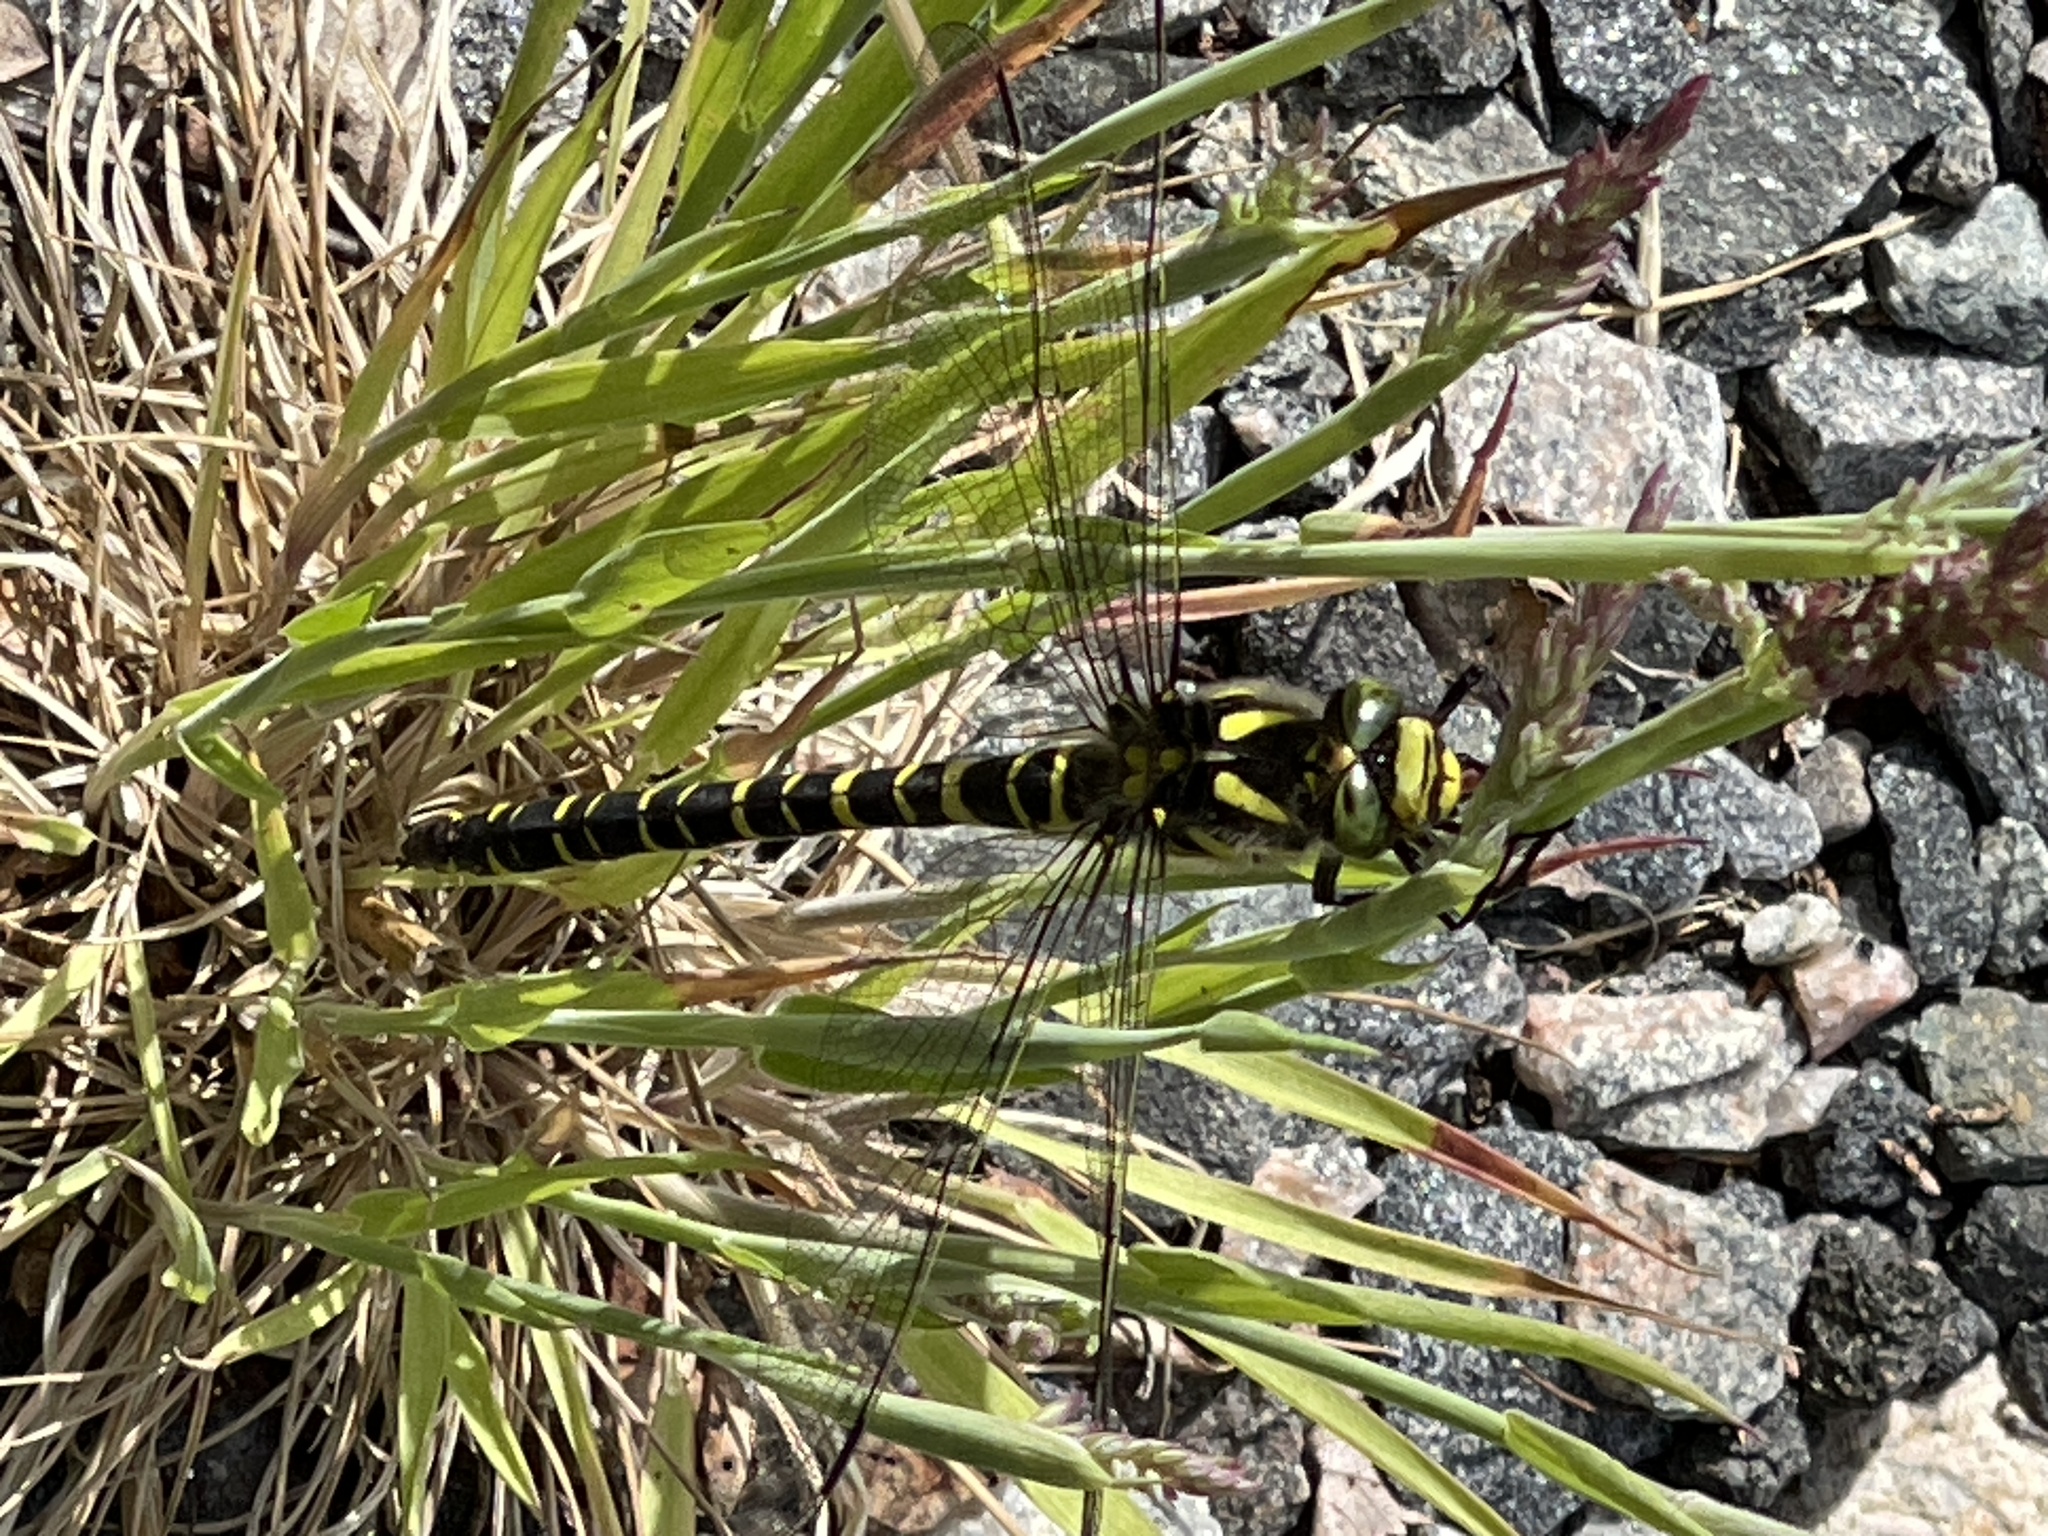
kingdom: Animalia
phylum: Arthropoda
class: Insecta
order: Odonata
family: Cordulegastridae
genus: Cordulegaster
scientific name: Cordulegaster boltonii
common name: Golden-ringed dragonfly
